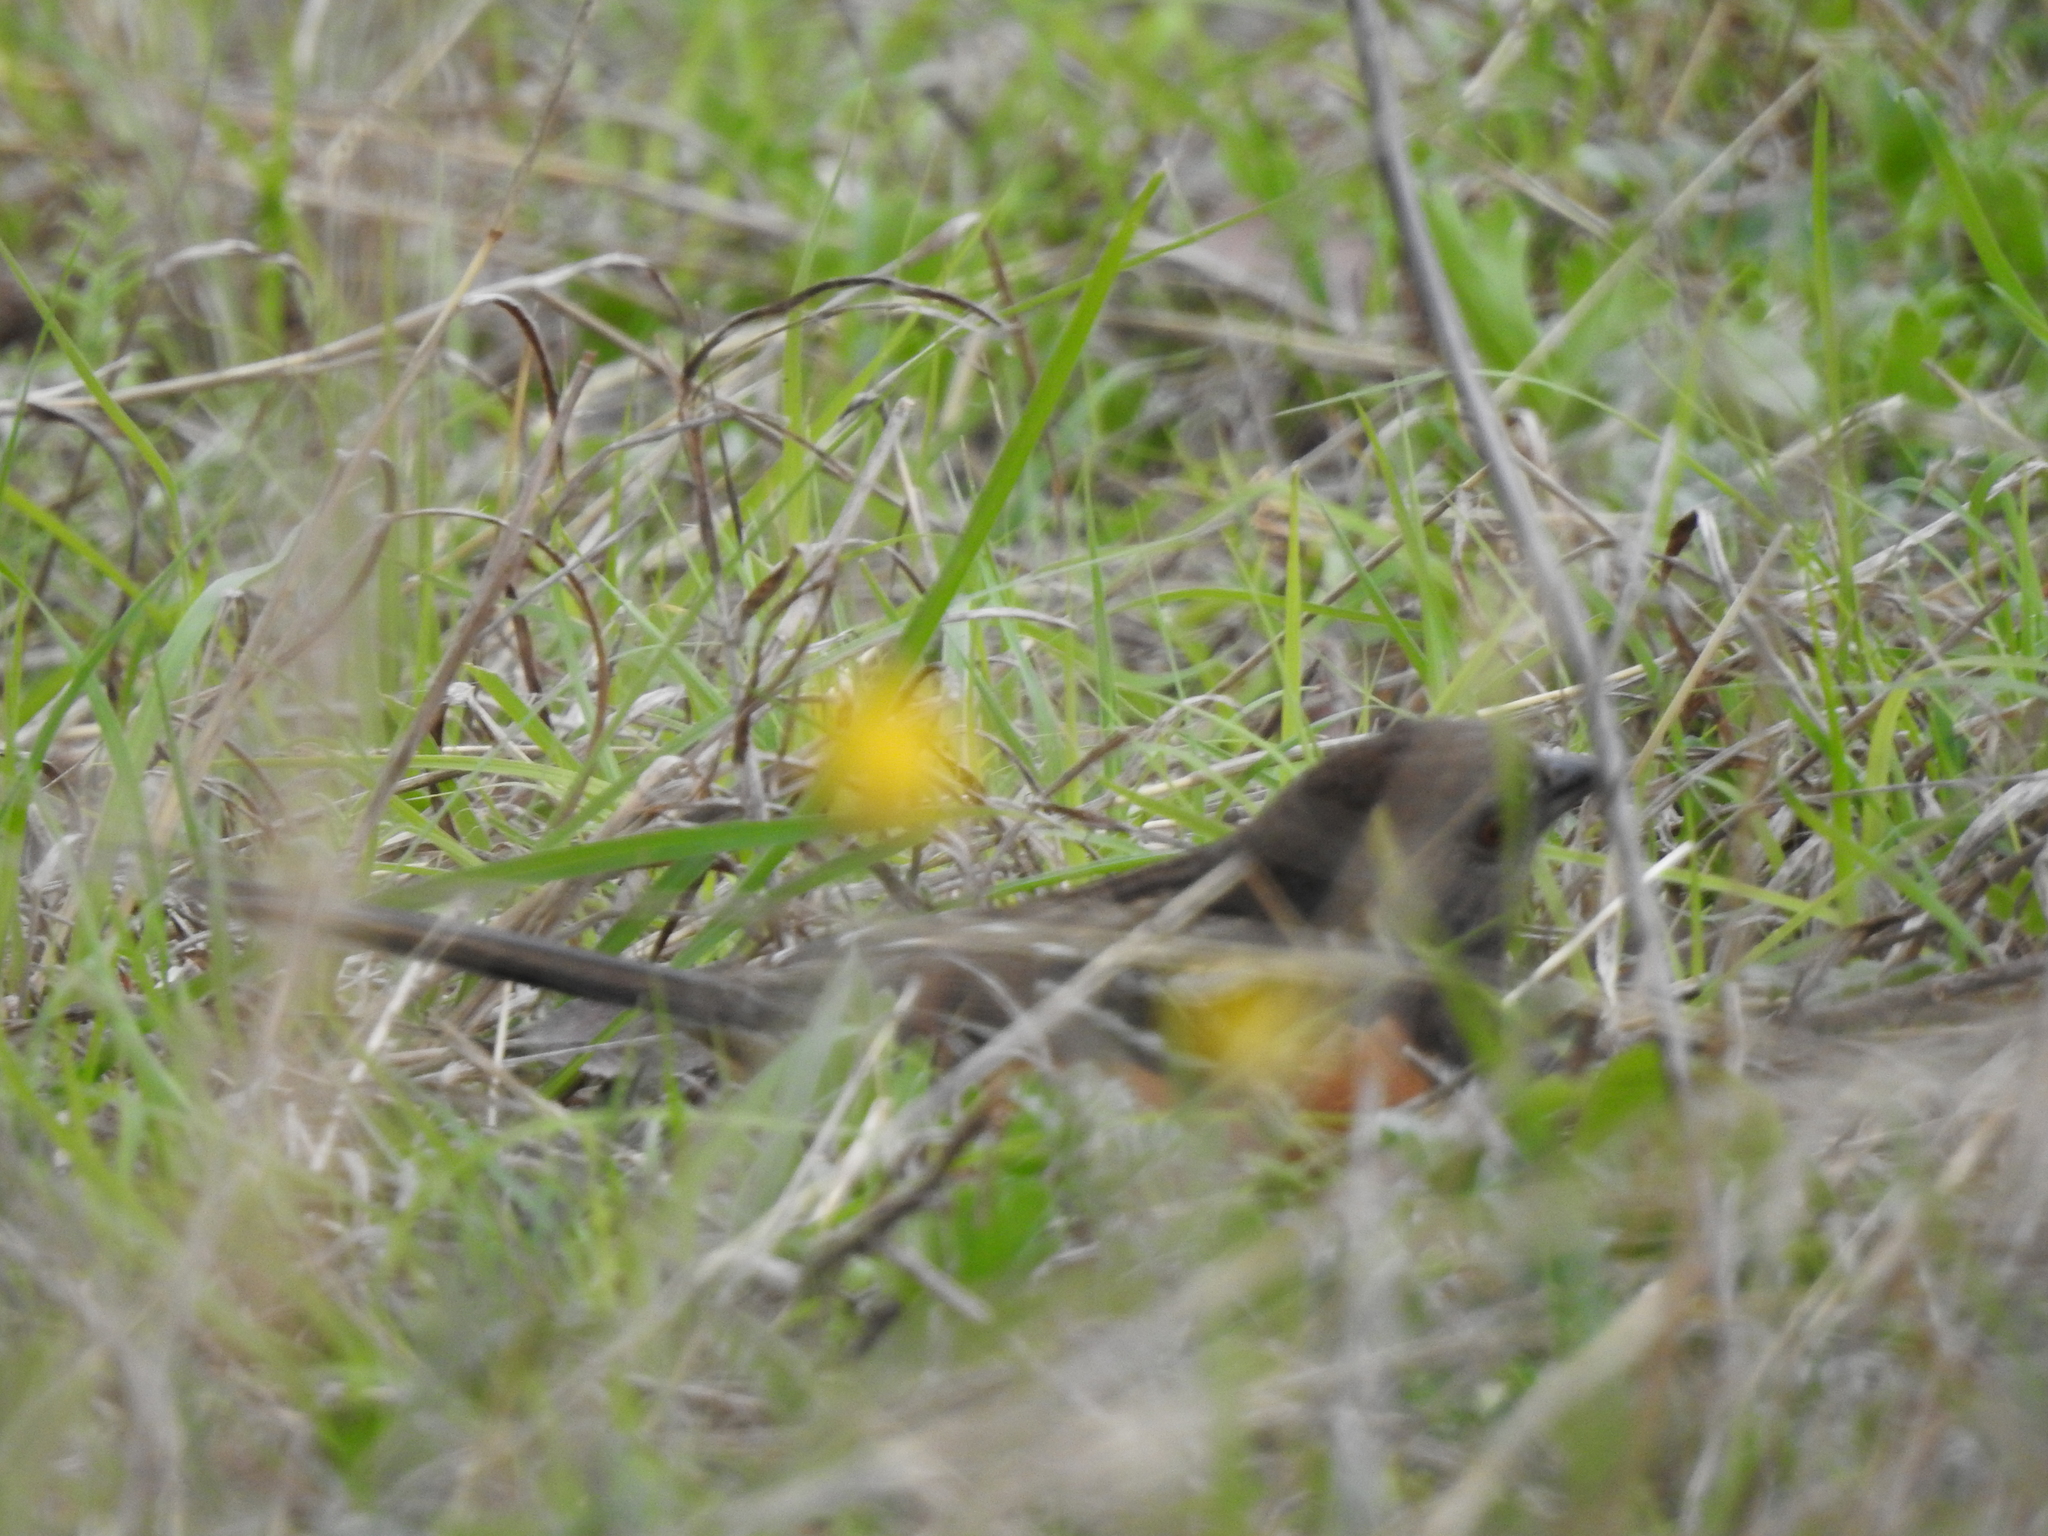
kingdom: Animalia
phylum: Chordata
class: Aves
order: Passeriformes
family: Passerellidae
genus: Pipilo
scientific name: Pipilo maculatus
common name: Spotted towhee
